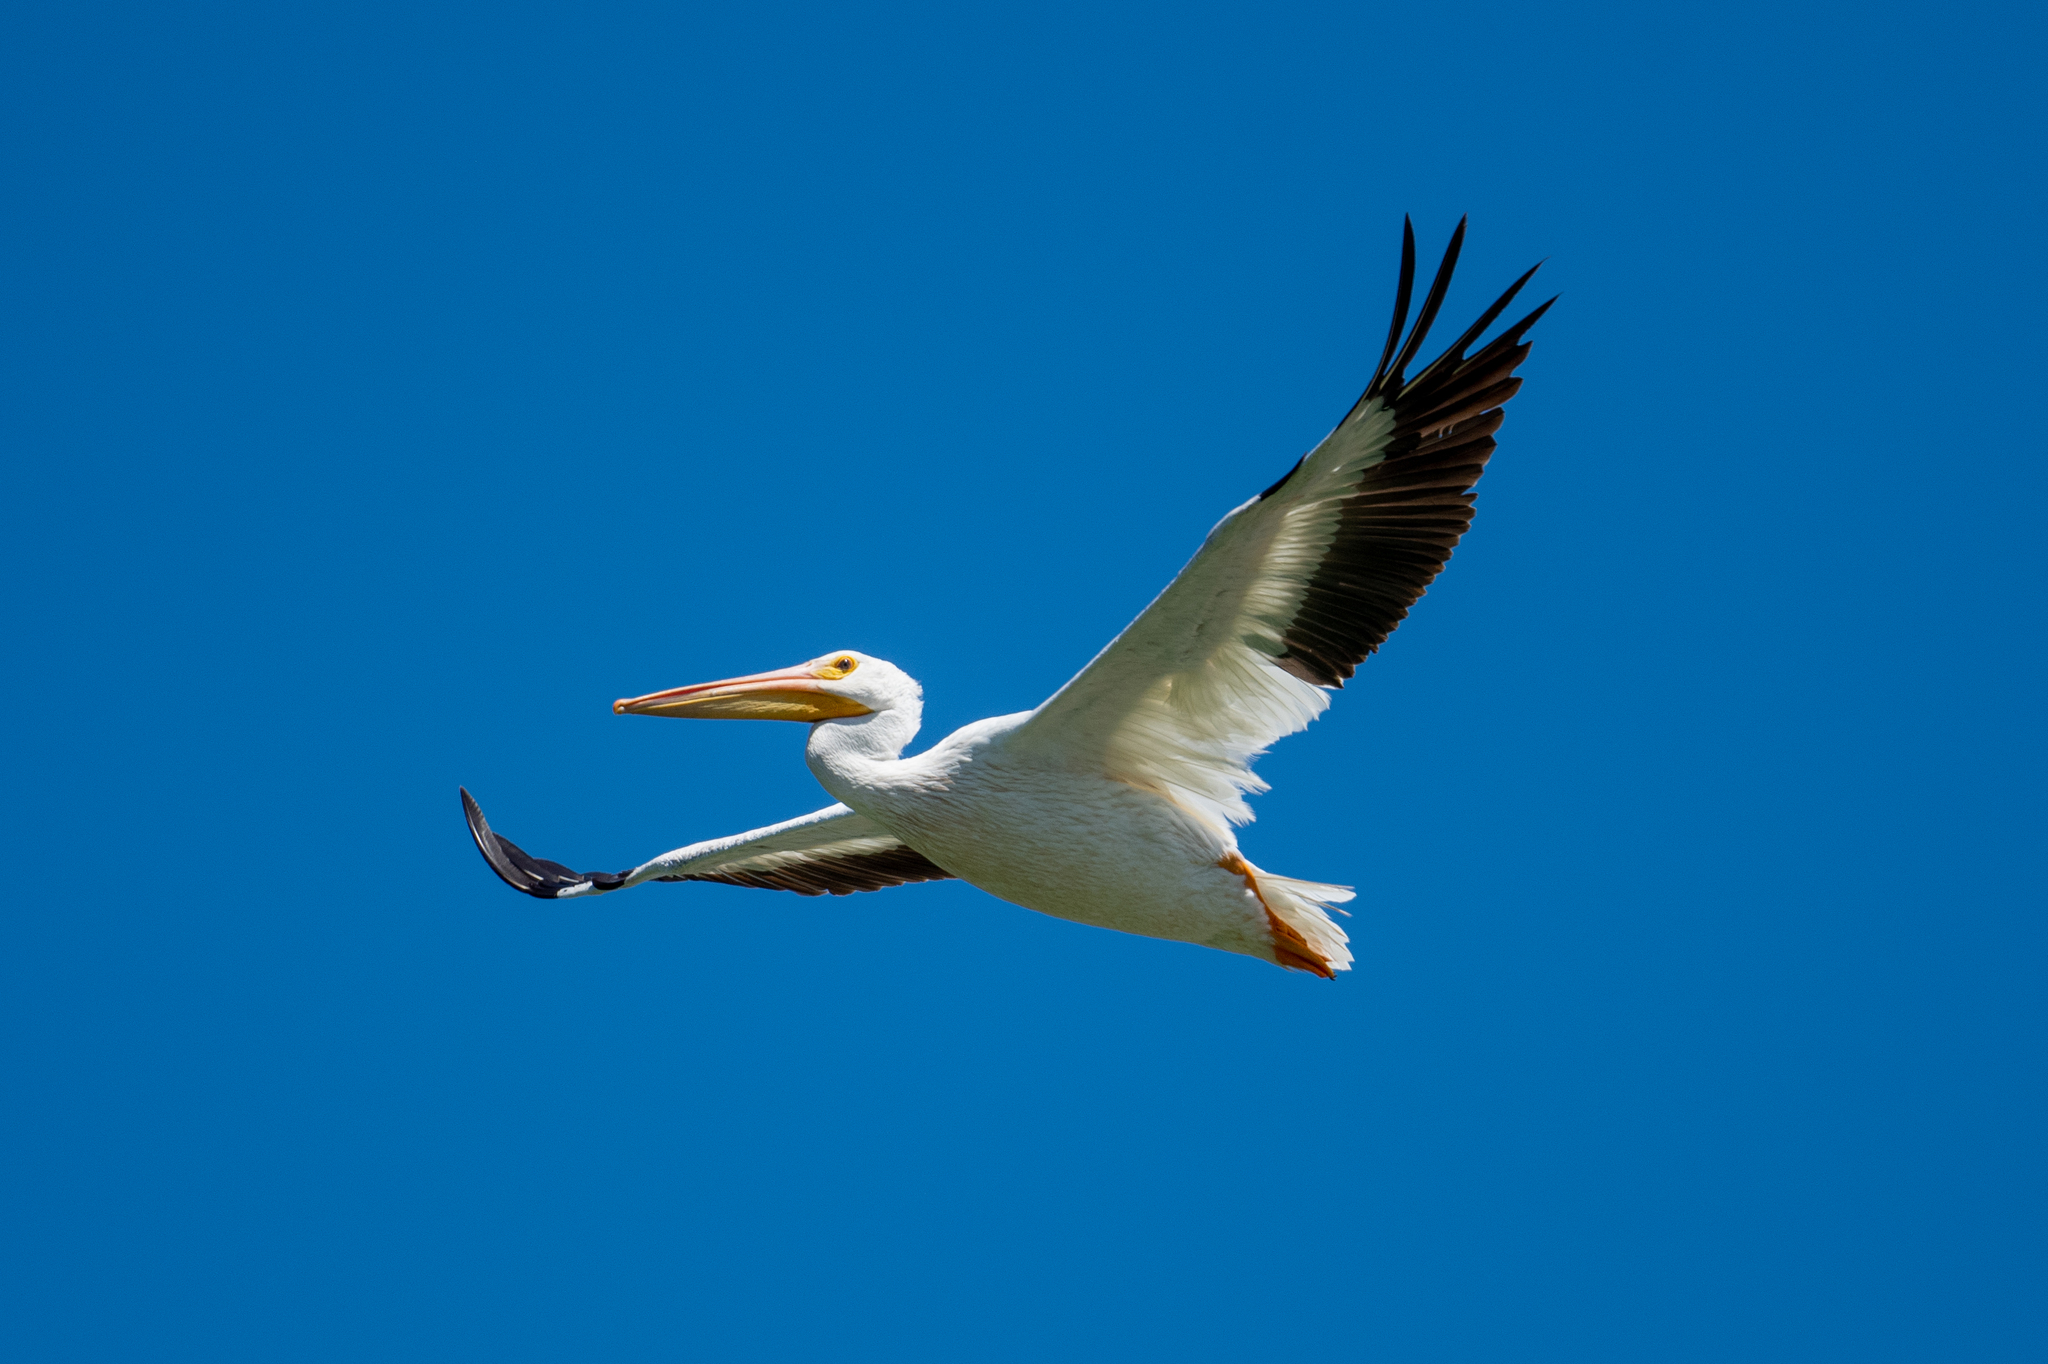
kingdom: Animalia
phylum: Chordata
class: Aves
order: Pelecaniformes
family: Pelecanidae
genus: Pelecanus
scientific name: Pelecanus erythrorhynchos
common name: American white pelican
